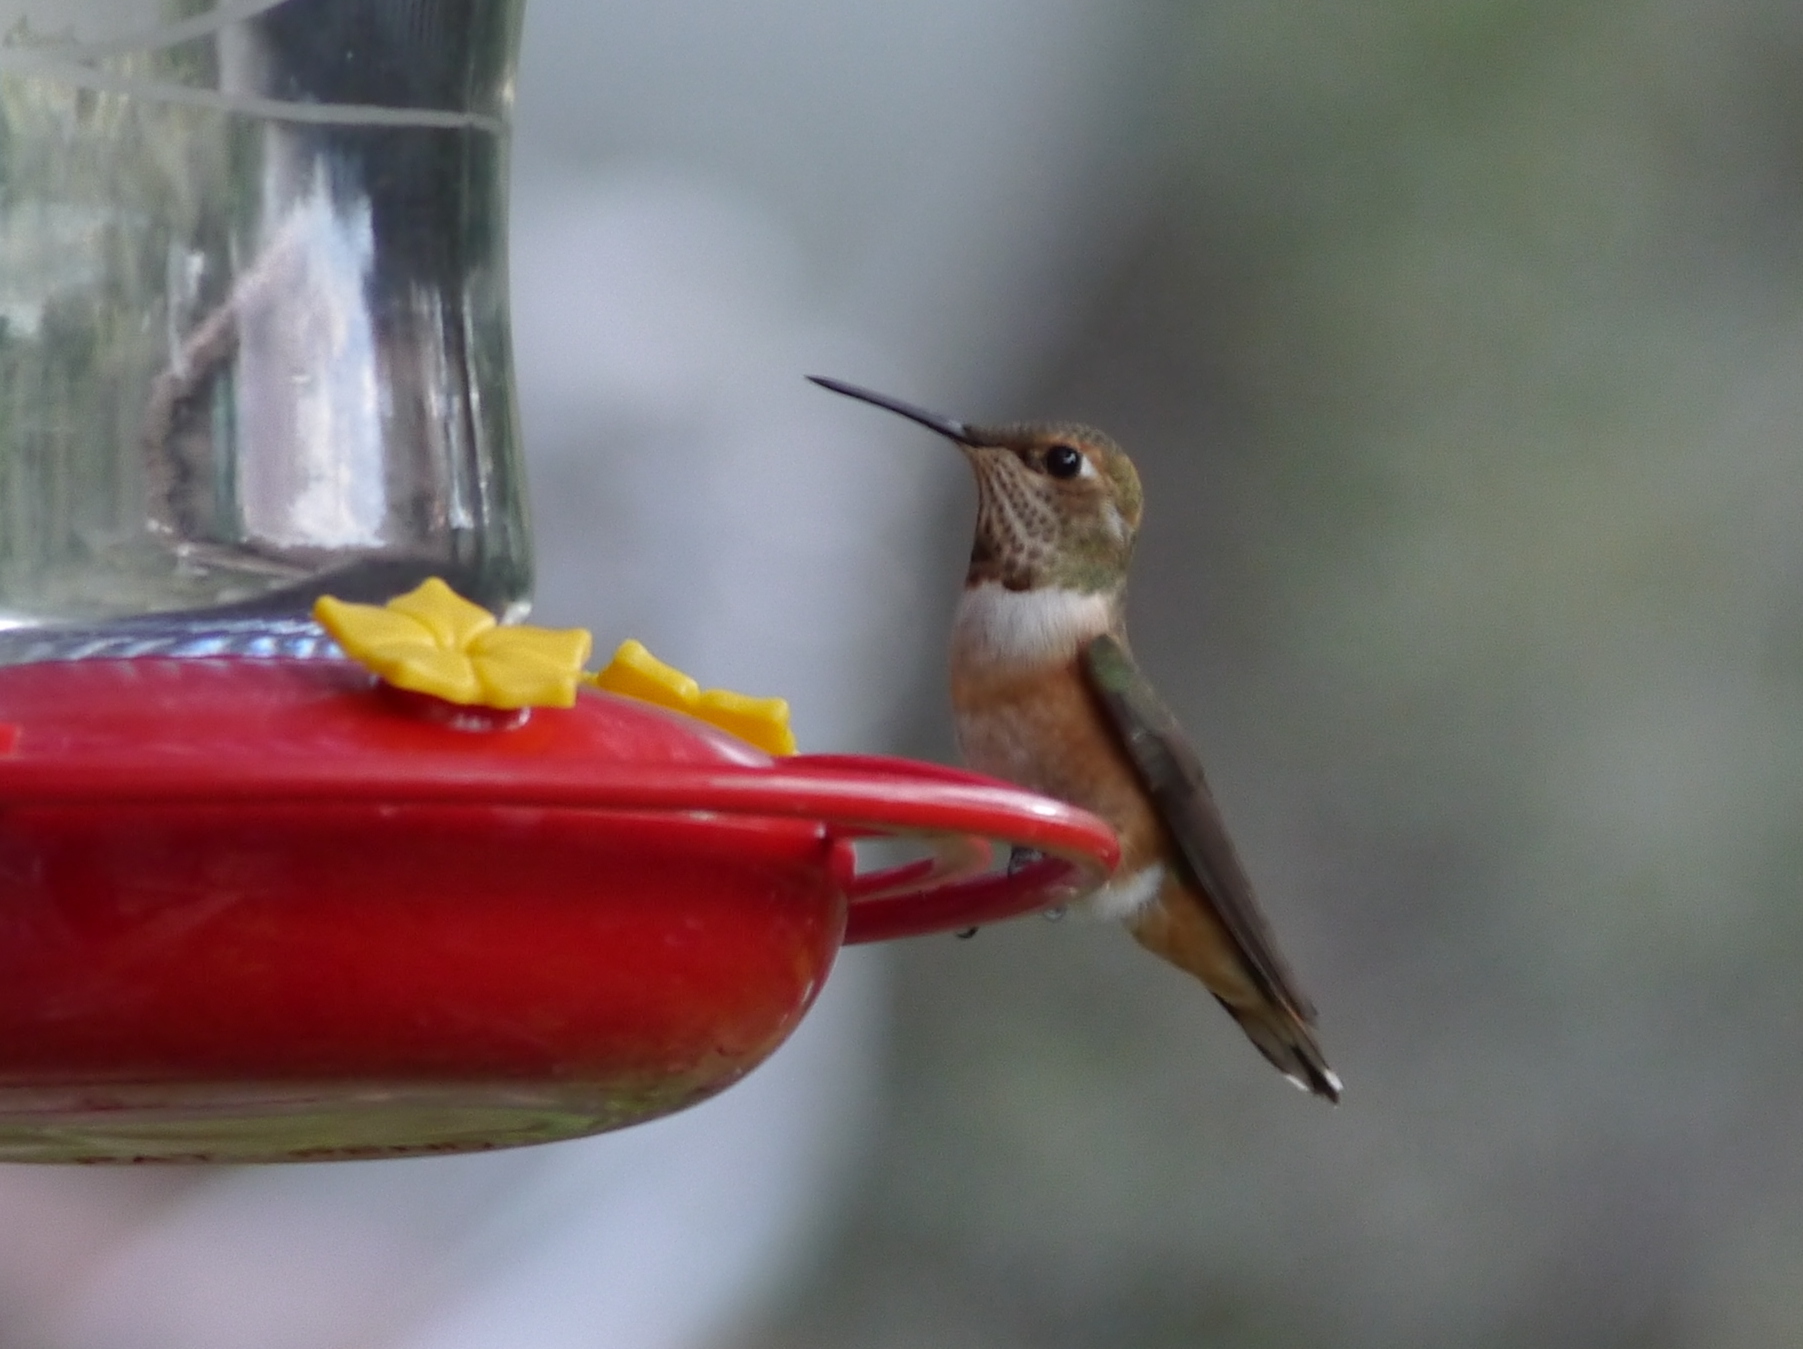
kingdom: Animalia
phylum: Chordata
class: Aves
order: Apodiformes
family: Trochilidae
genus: Selasphorus
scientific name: Selasphorus
